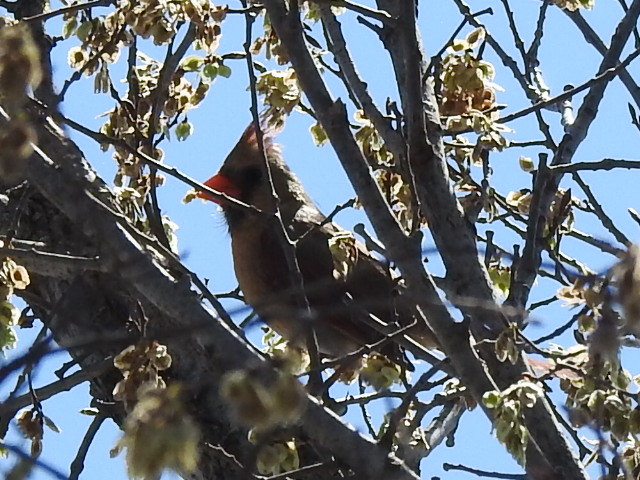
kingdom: Animalia
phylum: Chordata
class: Aves
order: Passeriformes
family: Cardinalidae
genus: Cardinalis
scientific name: Cardinalis cardinalis
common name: Northern cardinal
